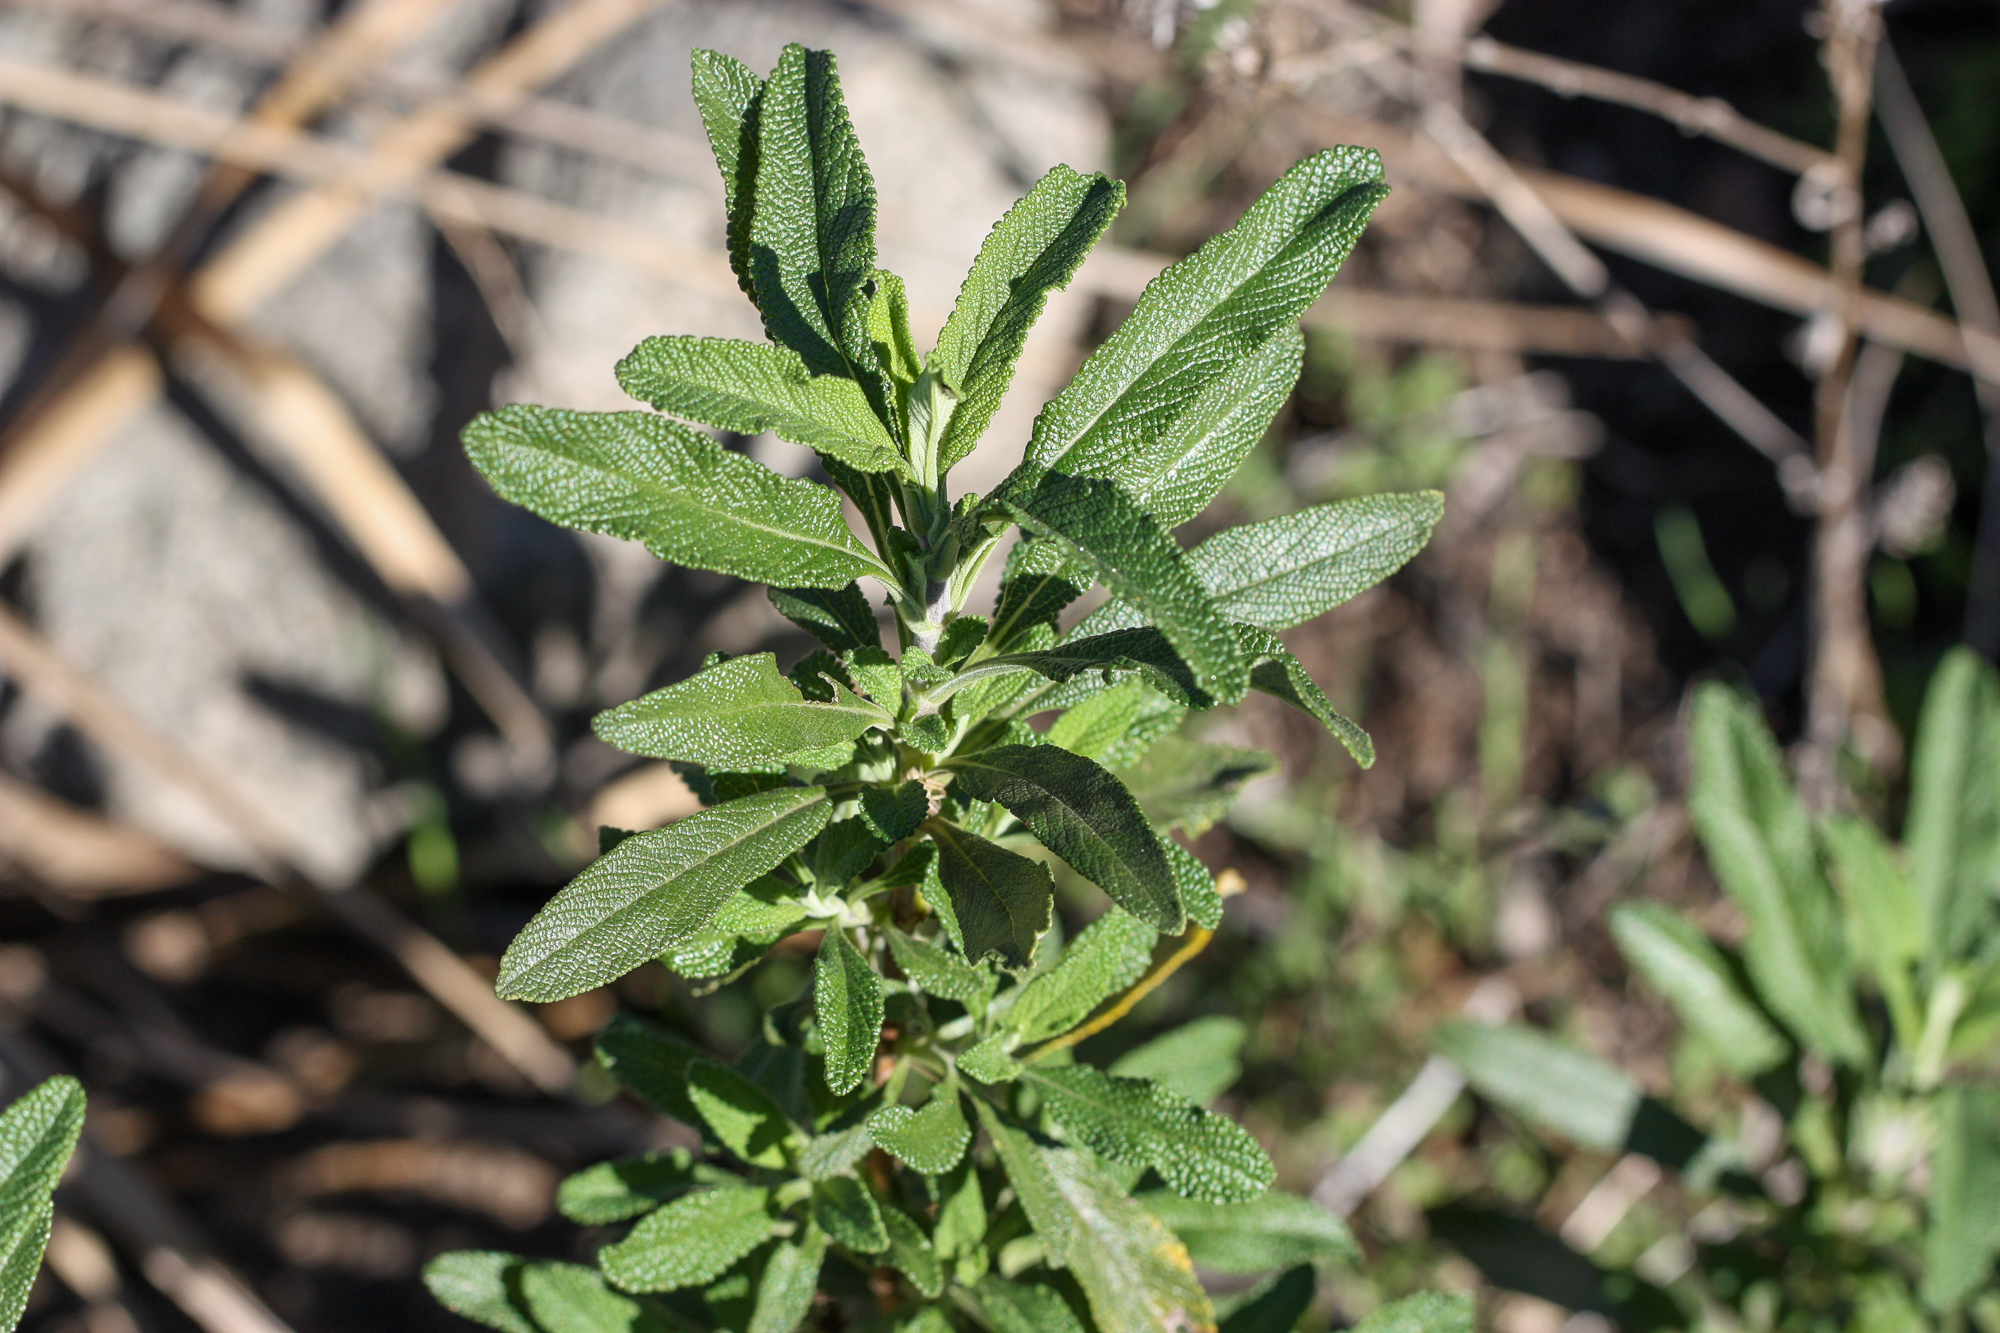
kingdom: Plantae
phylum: Tracheophyta
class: Magnoliopsida
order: Lamiales
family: Lamiaceae
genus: Salvia
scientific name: Salvia mellifera
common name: Black sage
